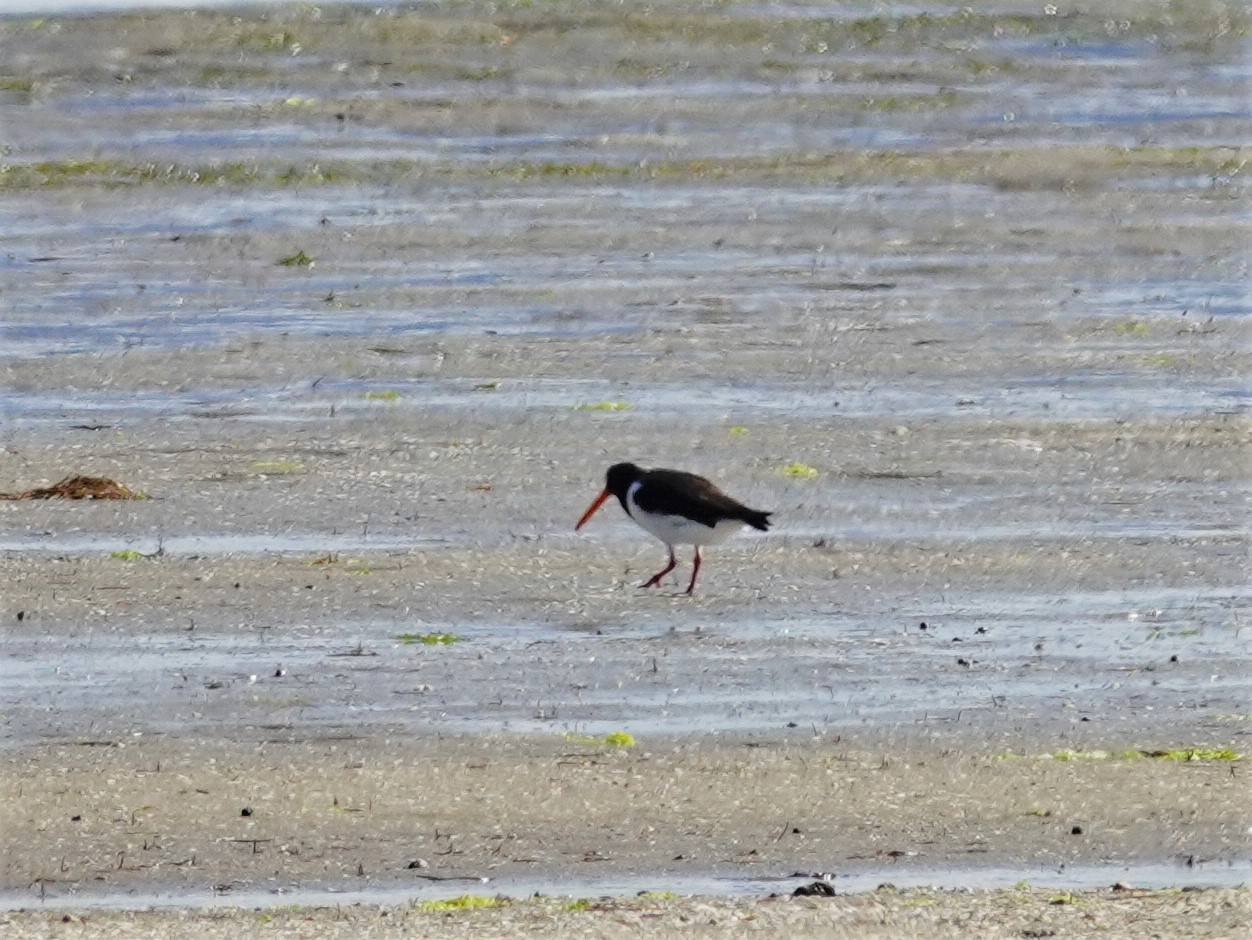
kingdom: Animalia
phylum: Chordata
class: Aves
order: Charadriiformes
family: Haematopodidae
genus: Haematopus
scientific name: Haematopus finschi
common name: South island oystercatcher
